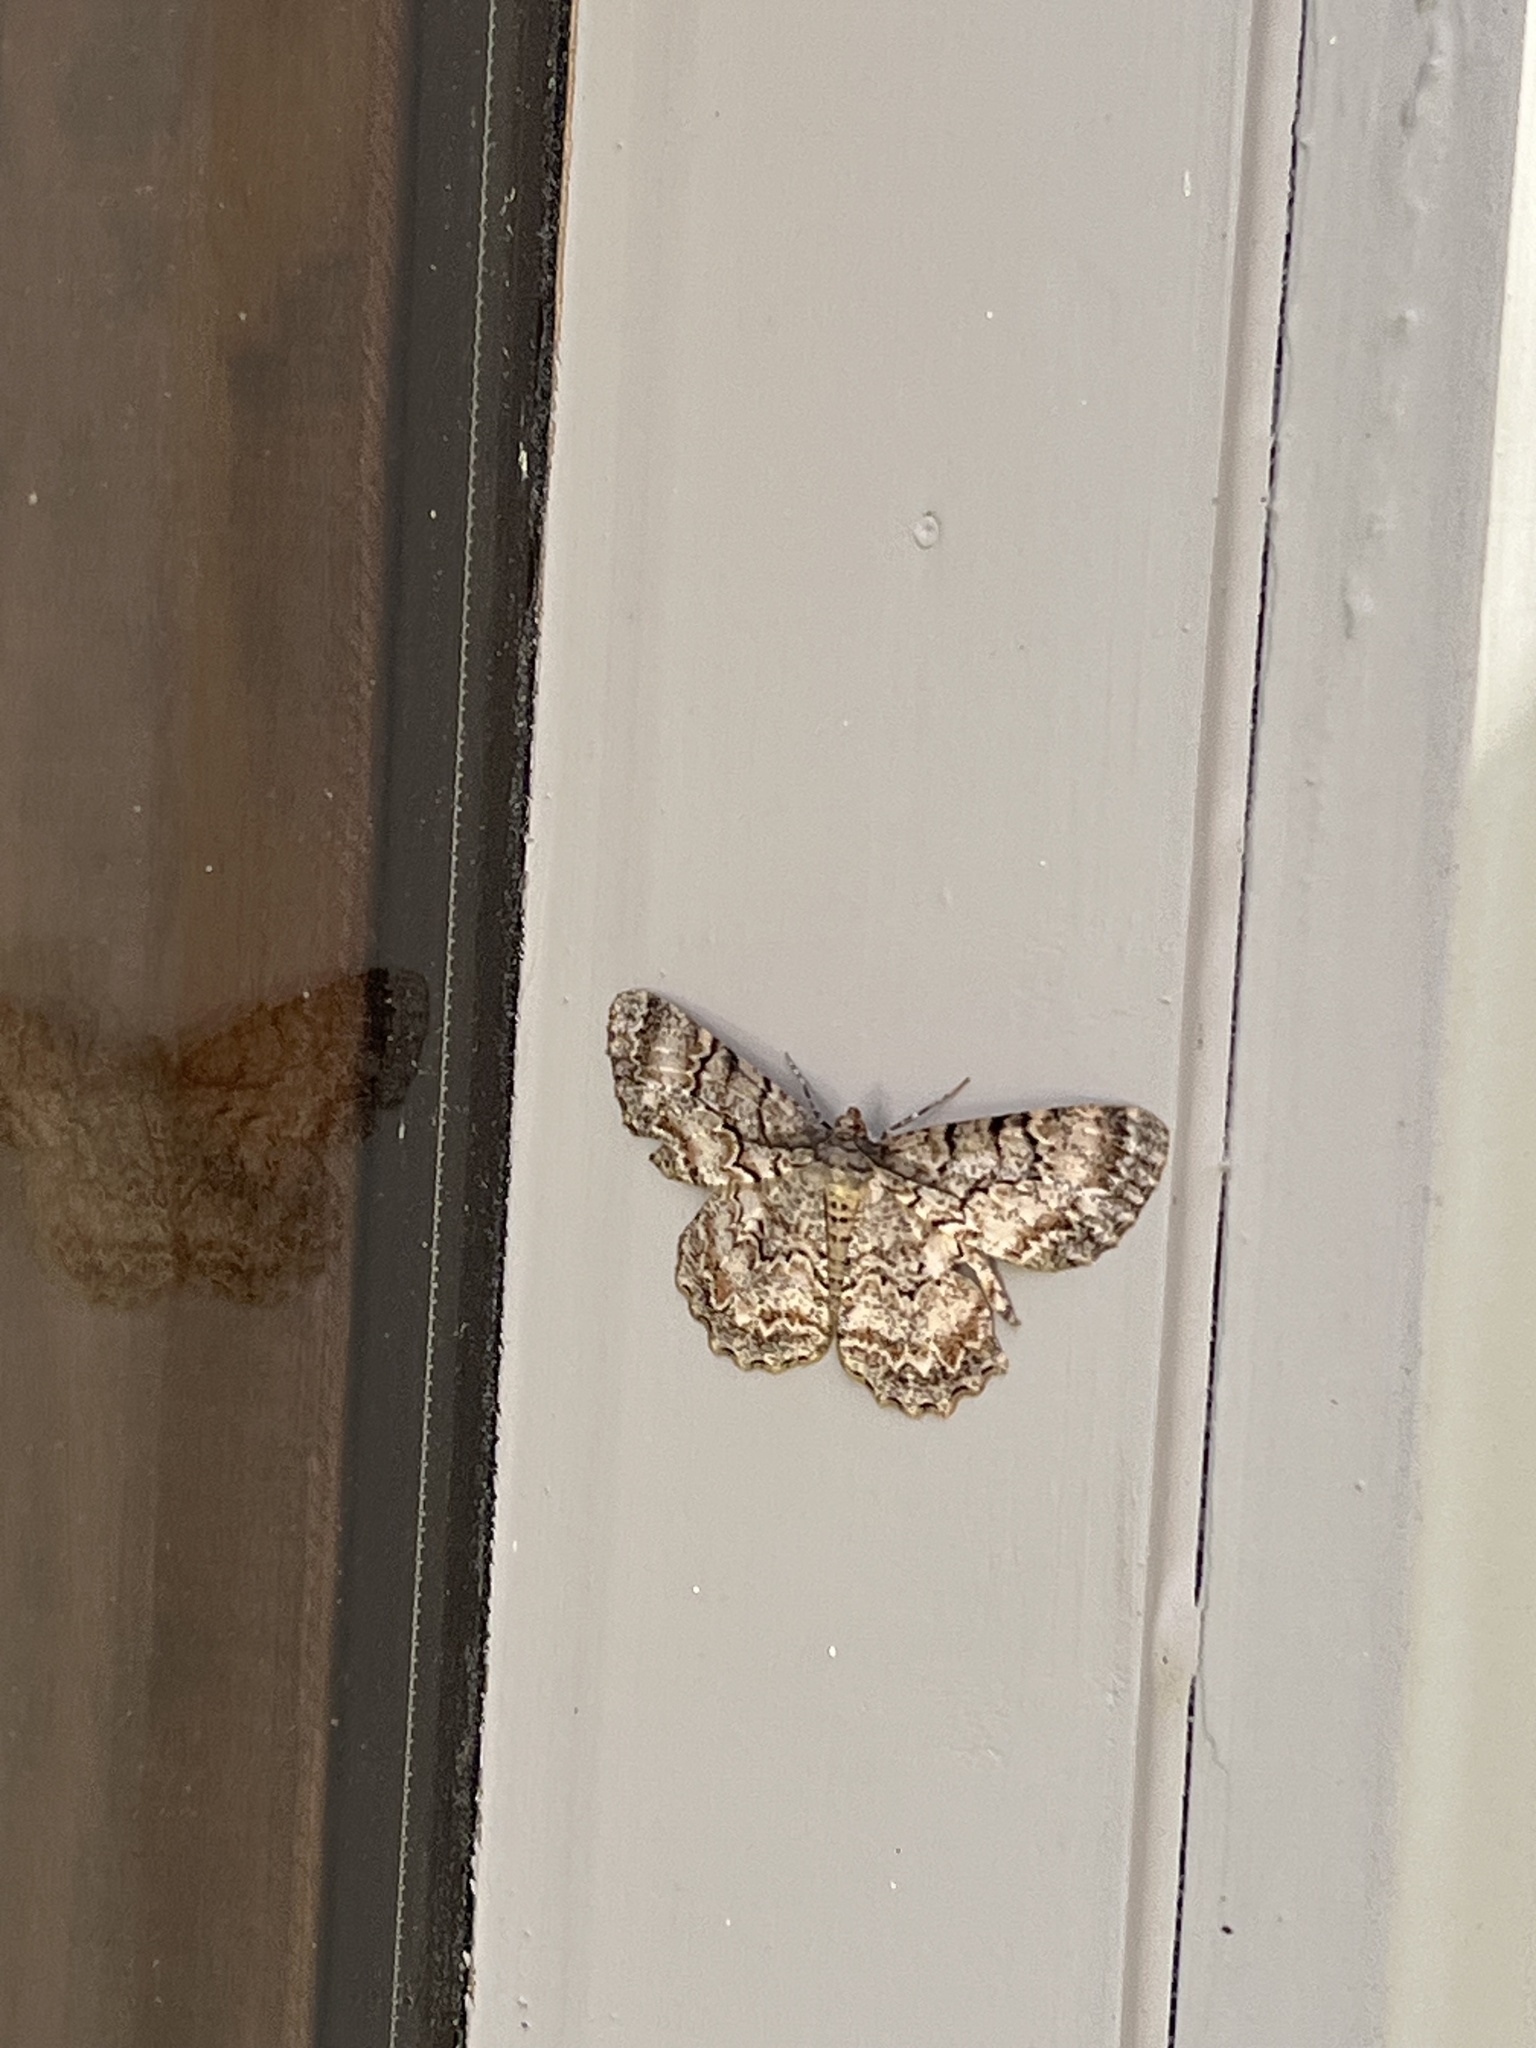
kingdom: Animalia
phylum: Arthropoda
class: Insecta
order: Lepidoptera
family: Geometridae
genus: Epimecis
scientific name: Epimecis hortaria
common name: Tulip-tree beauty
